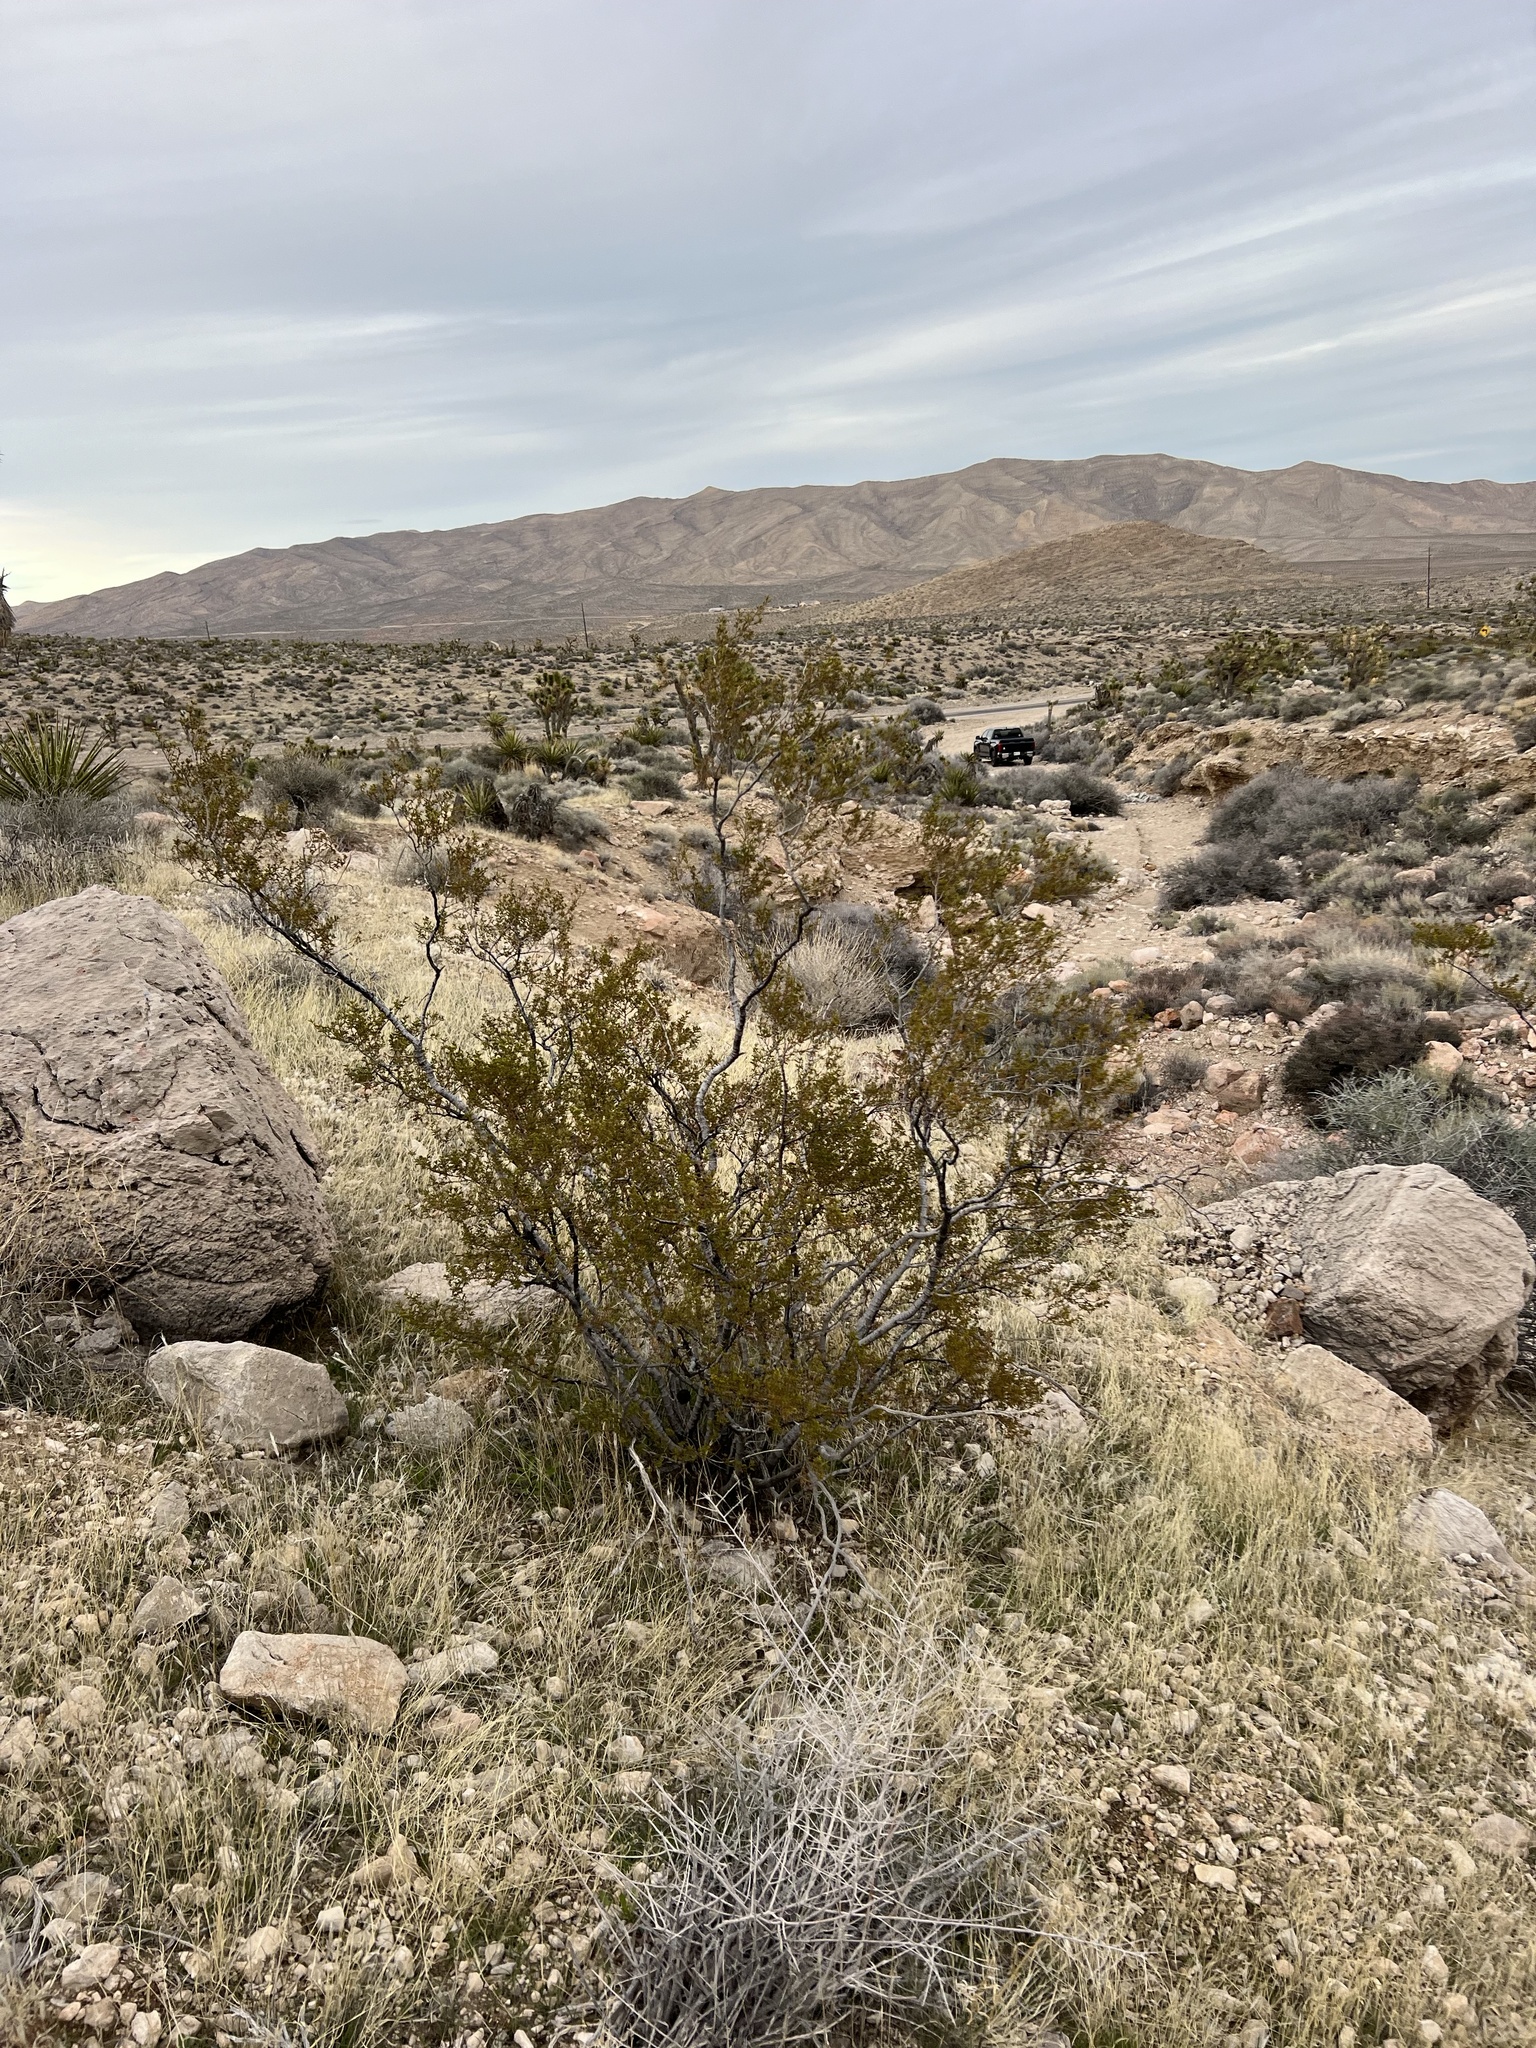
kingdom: Plantae
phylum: Tracheophyta
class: Magnoliopsida
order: Zygophyllales
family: Zygophyllaceae
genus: Larrea
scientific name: Larrea tridentata
